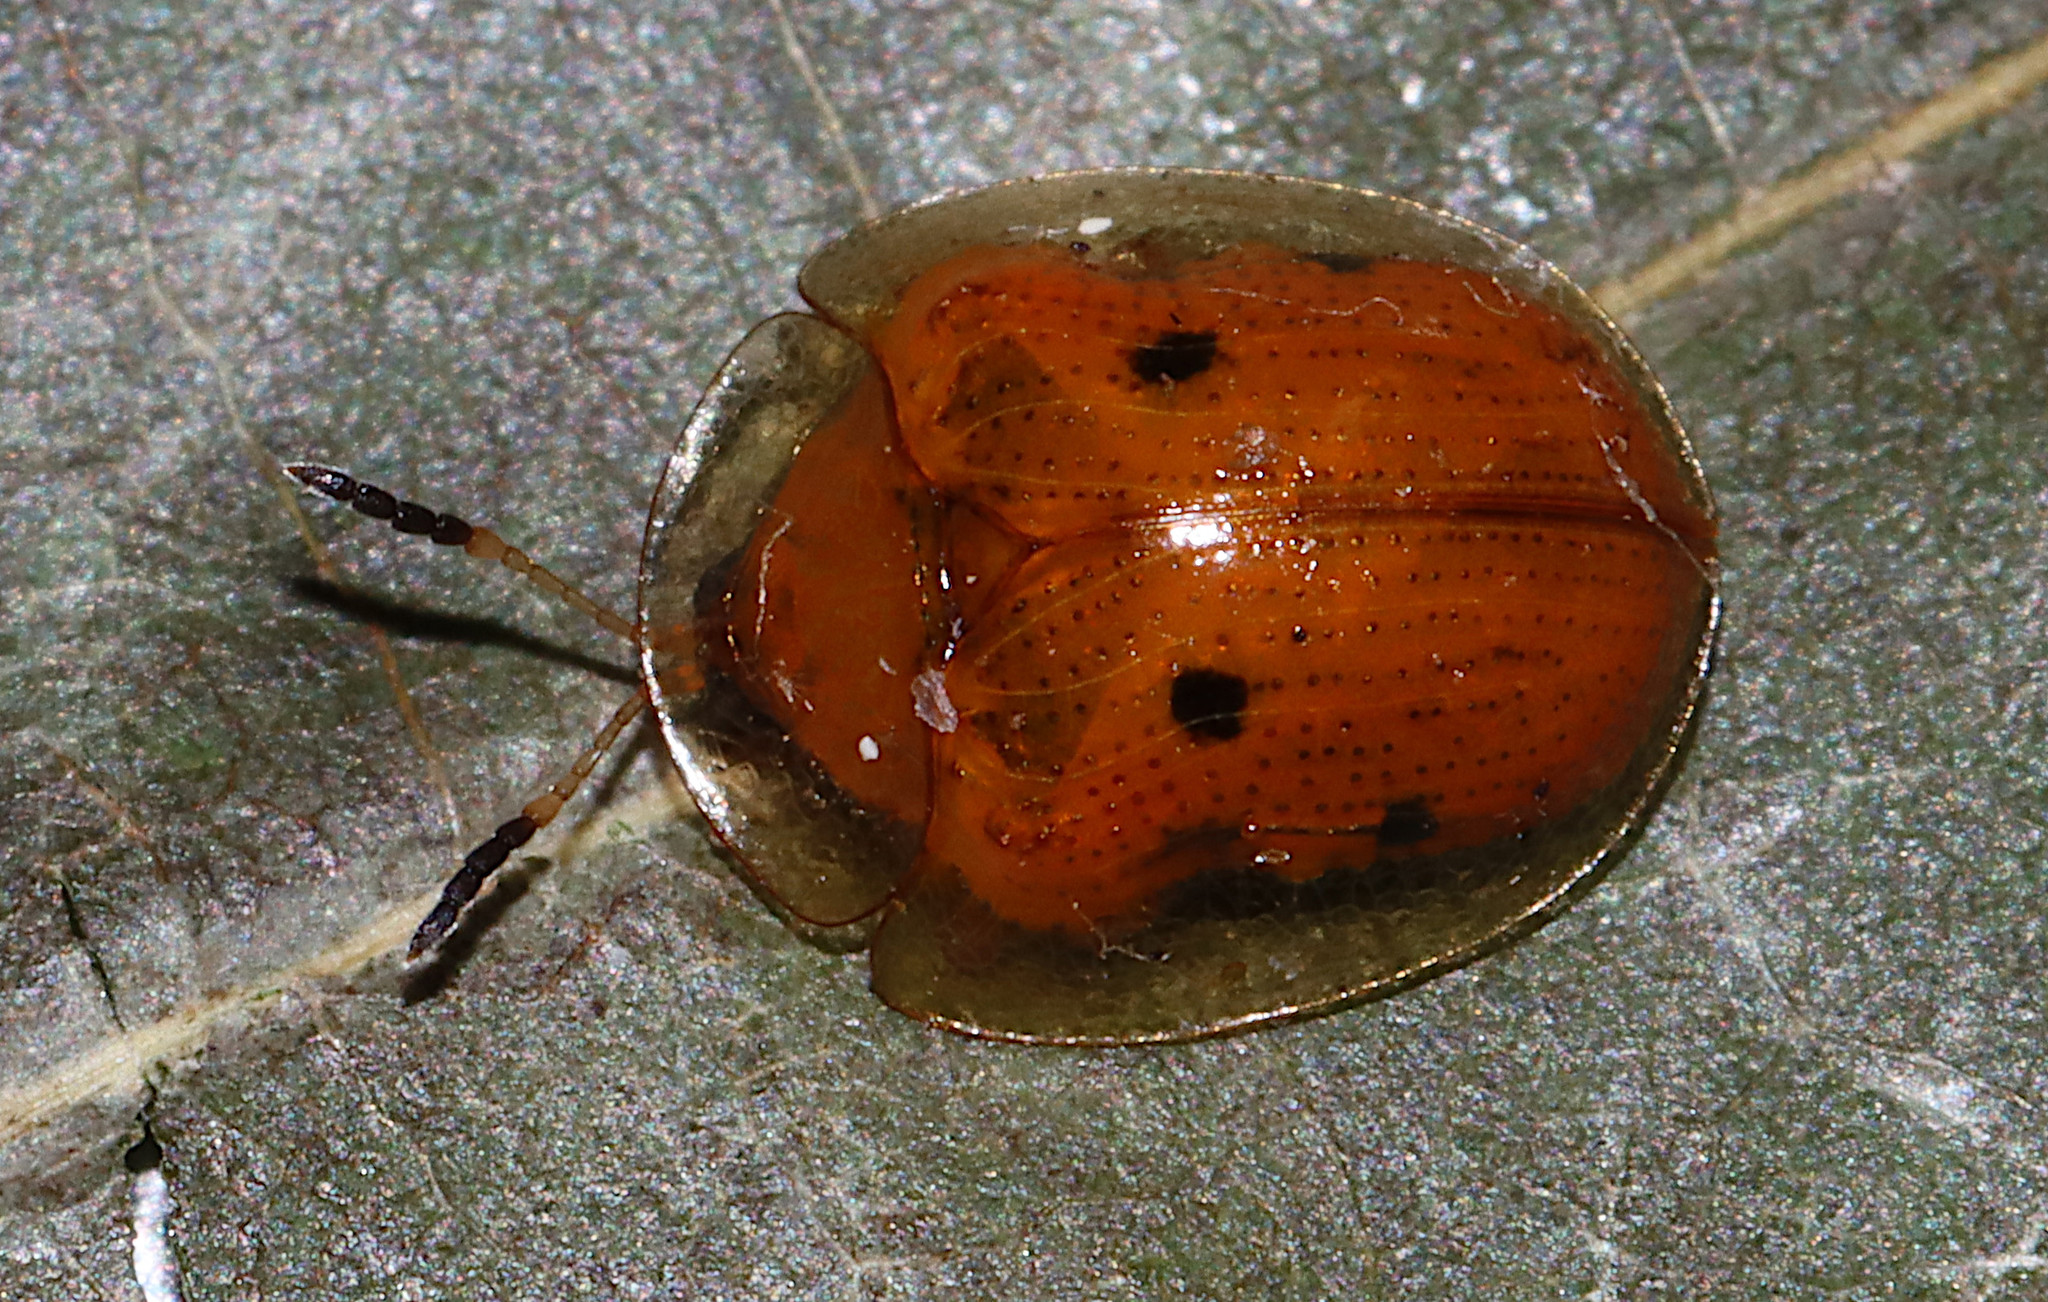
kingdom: Animalia
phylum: Arthropoda
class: Insecta
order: Coleoptera
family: Chrysomelidae
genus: Charidotella
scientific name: Charidotella sexpunctata
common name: Golden tortoise beetle
